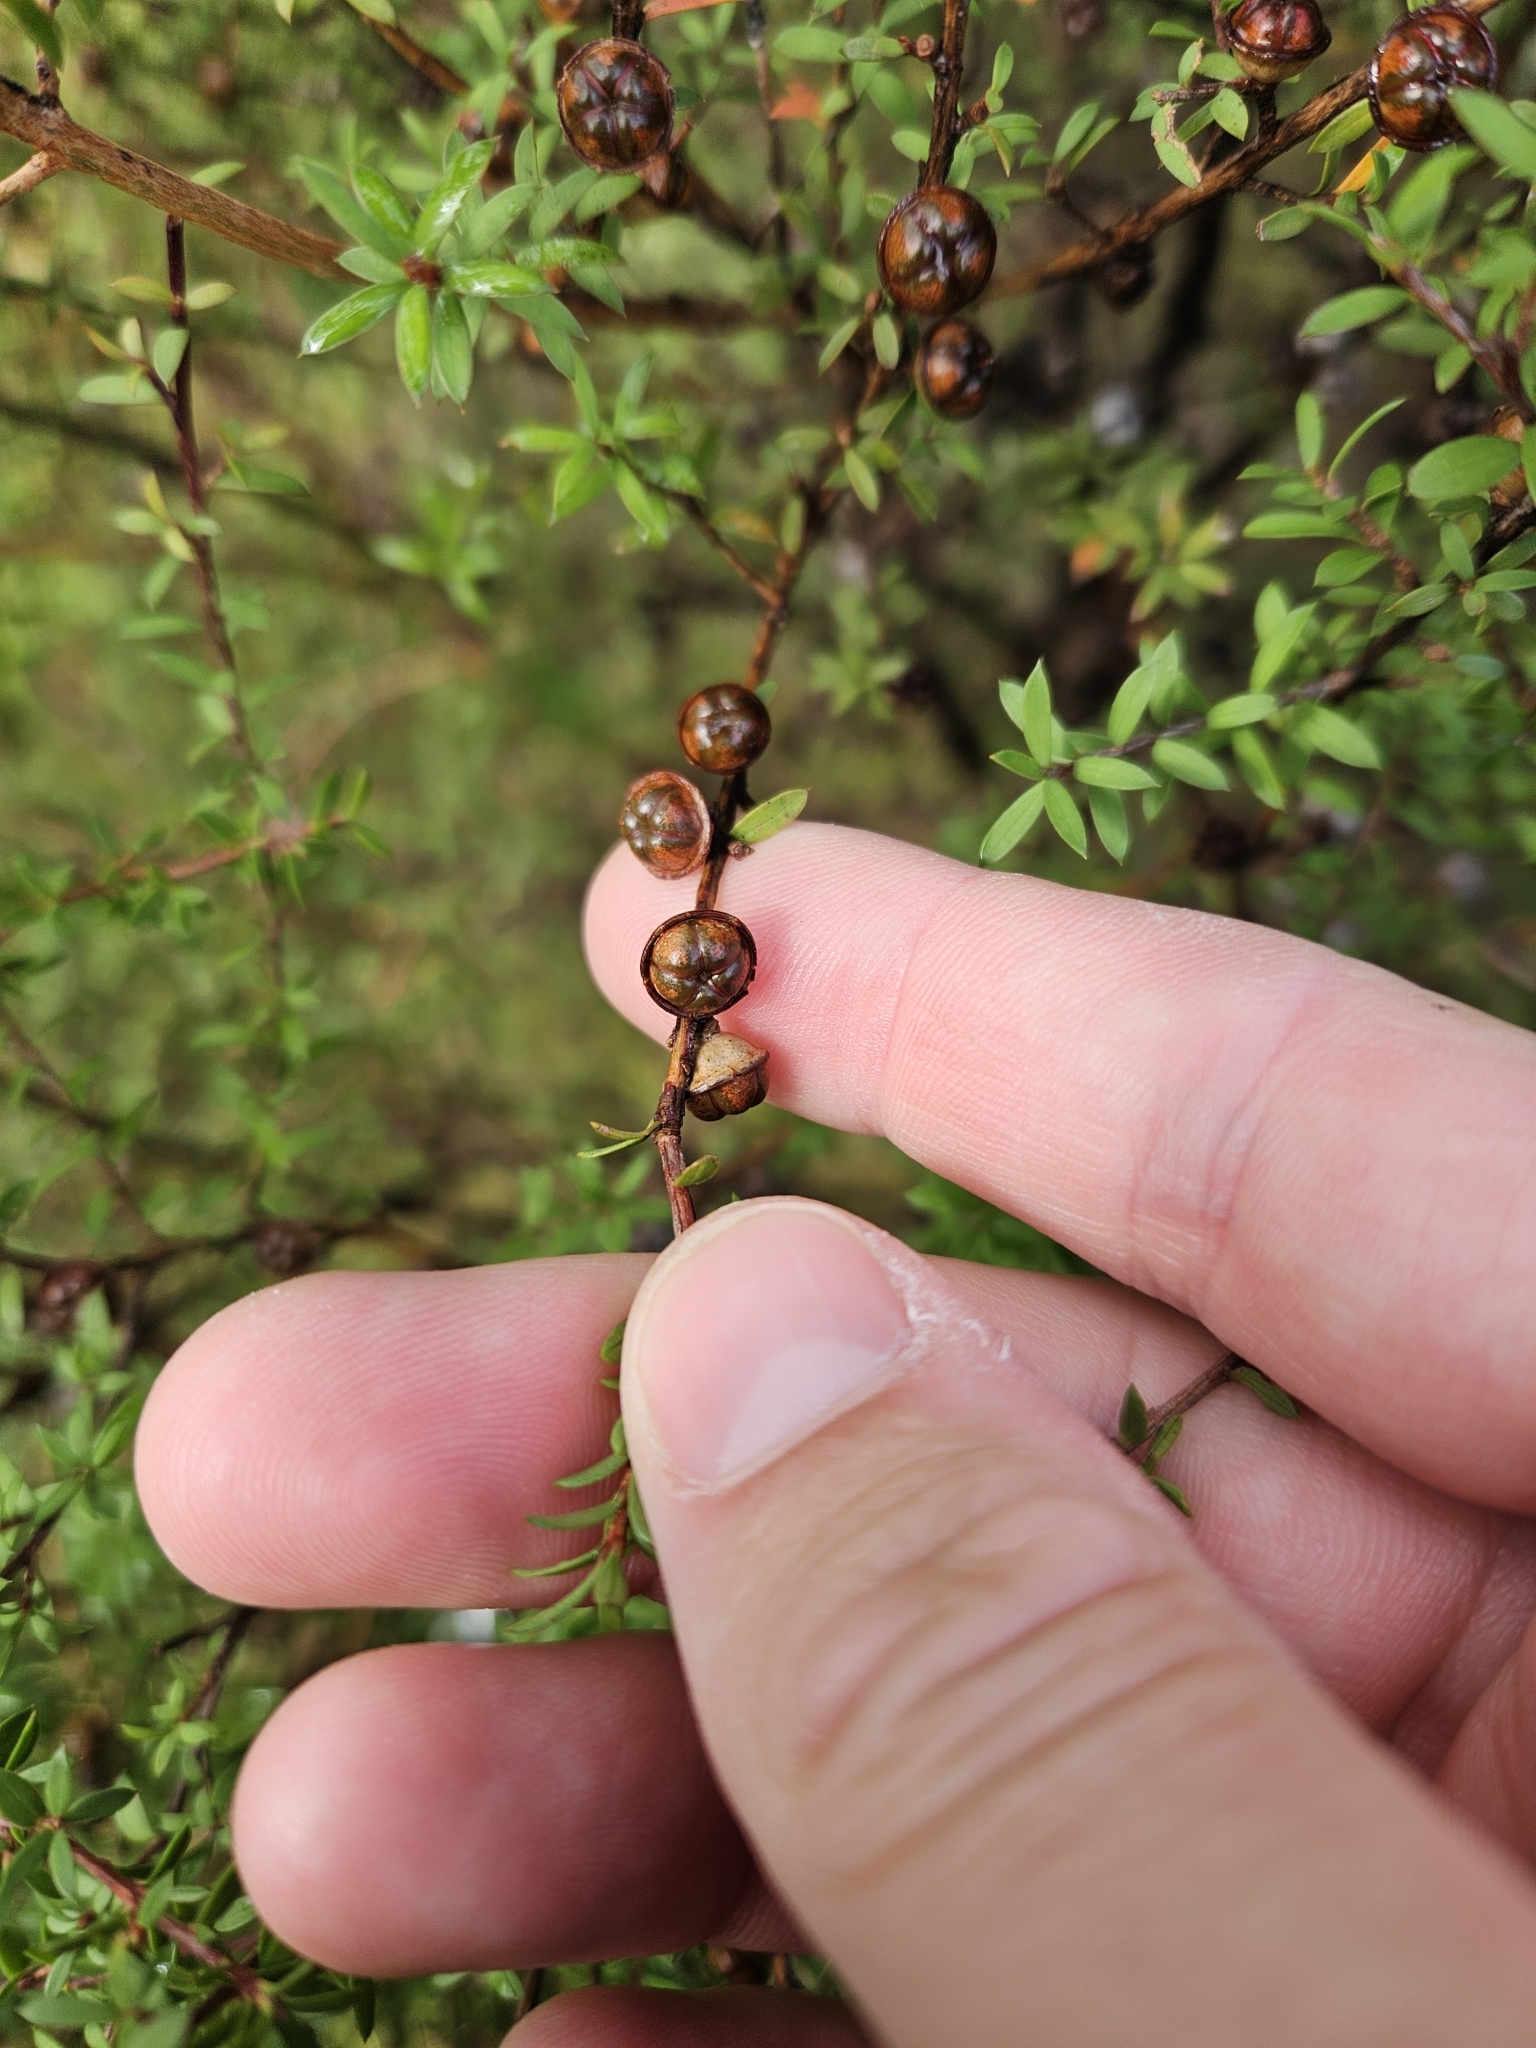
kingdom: Plantae
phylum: Tracheophyta
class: Magnoliopsida
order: Myrtales
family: Myrtaceae
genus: Leptospermum
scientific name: Leptospermum scoparium
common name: Broom tea-tree
